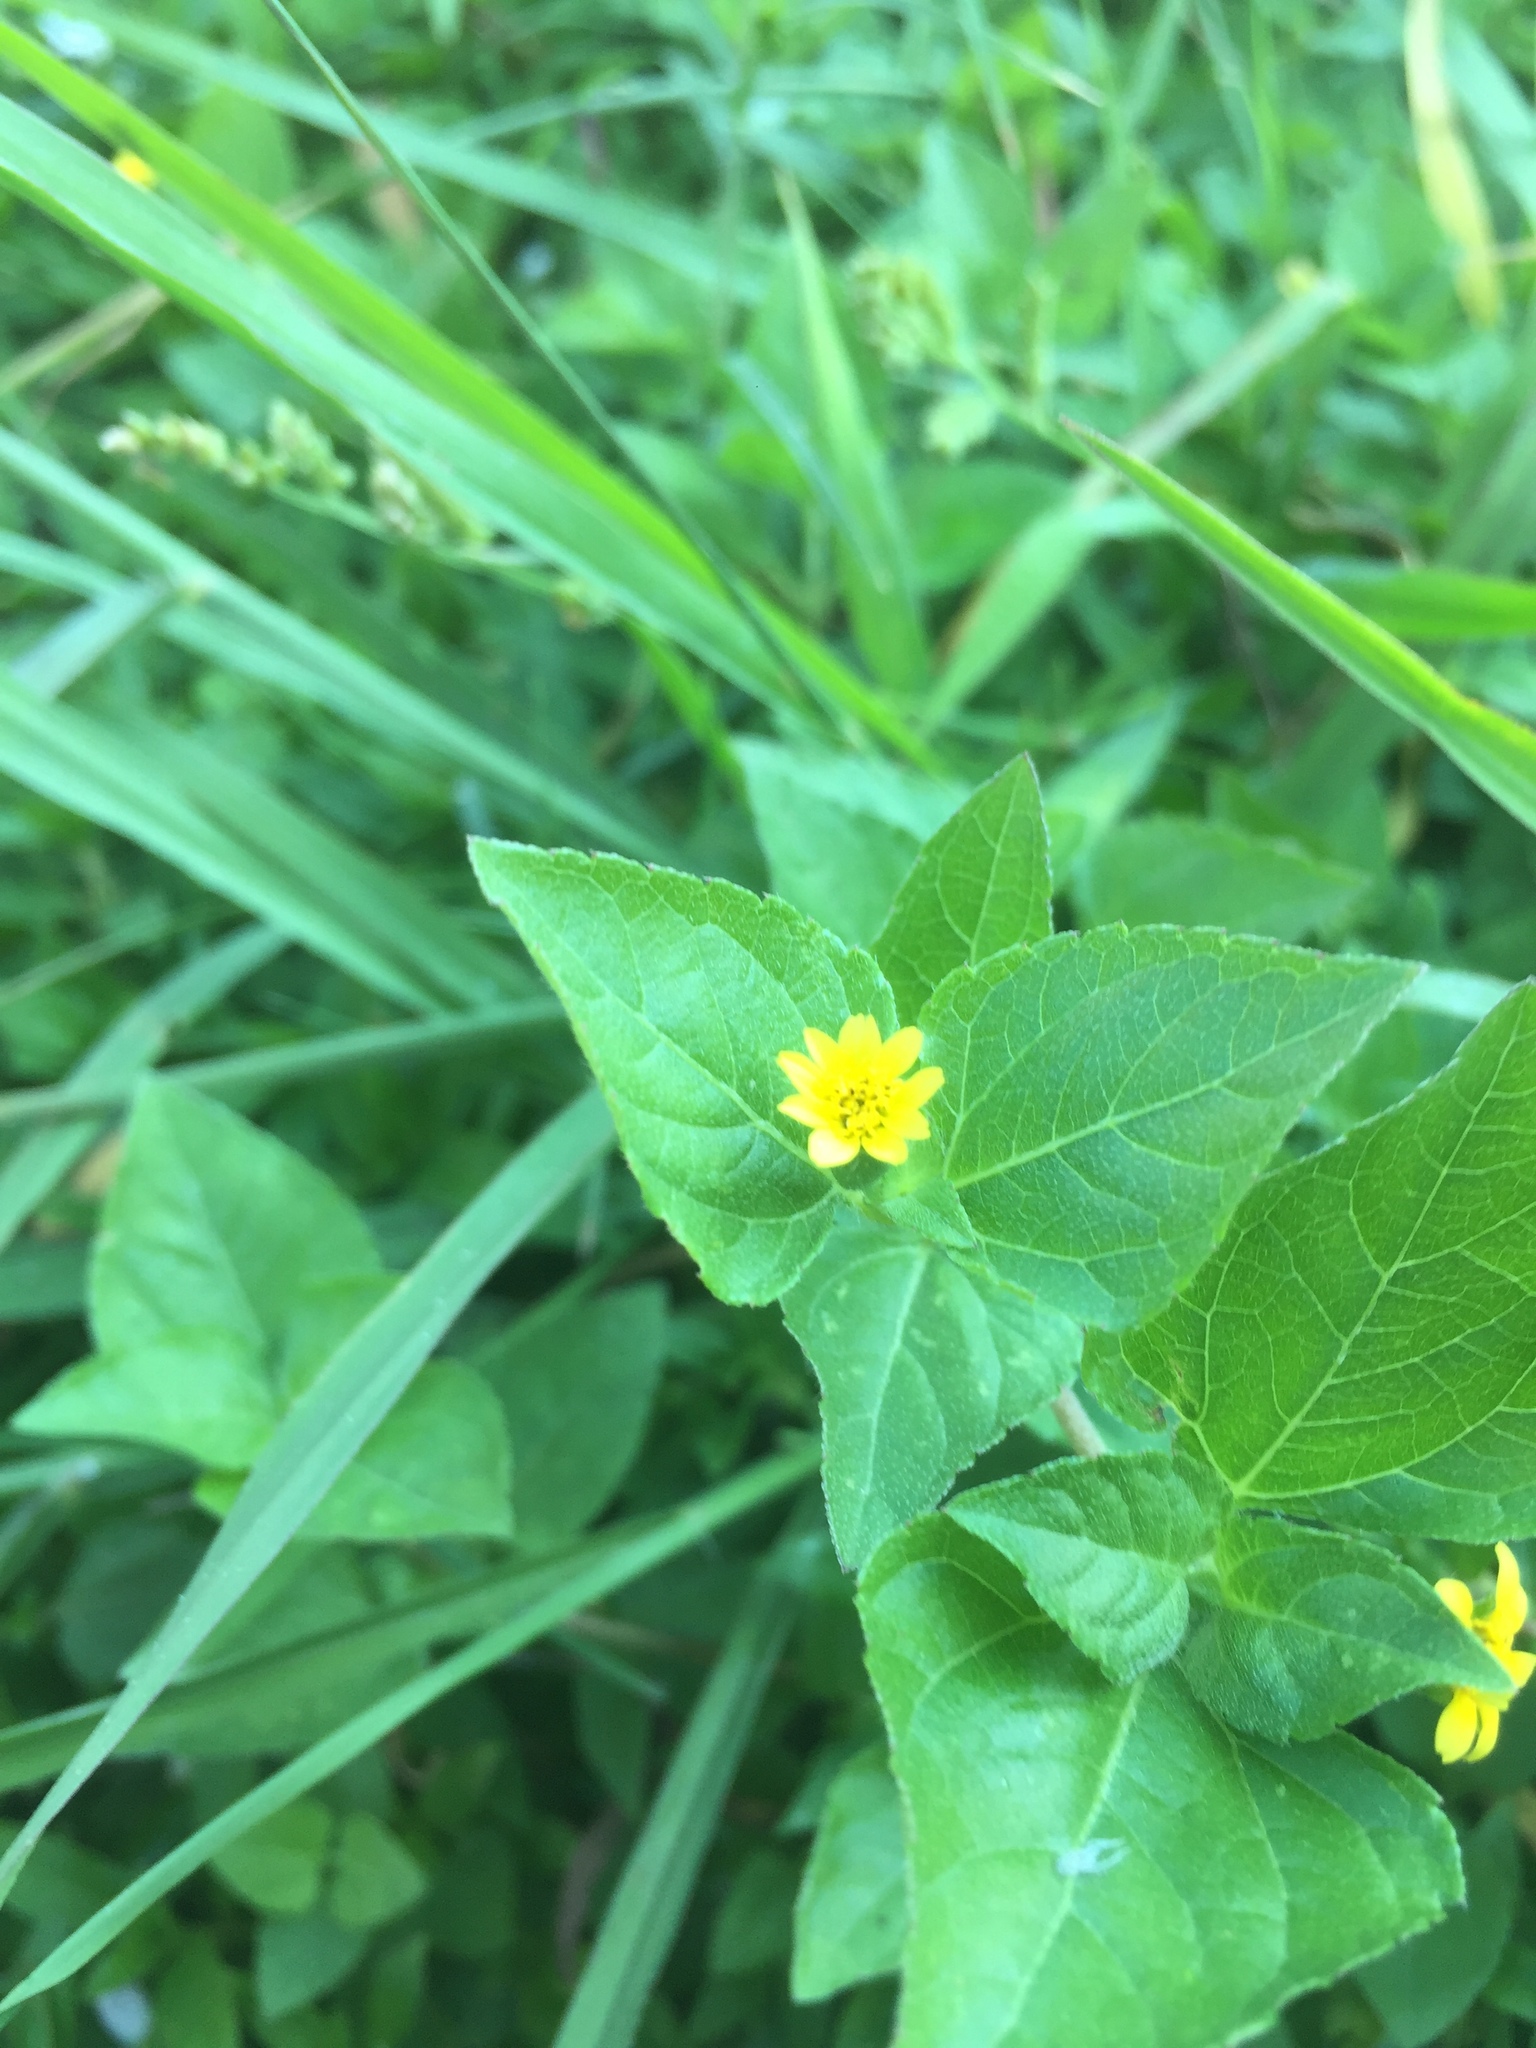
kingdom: Plantae
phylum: Tracheophyta
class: Magnoliopsida
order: Asterales
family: Asteraceae
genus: Calyptocarpus
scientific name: Calyptocarpus vialis
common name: Straggler daisy
